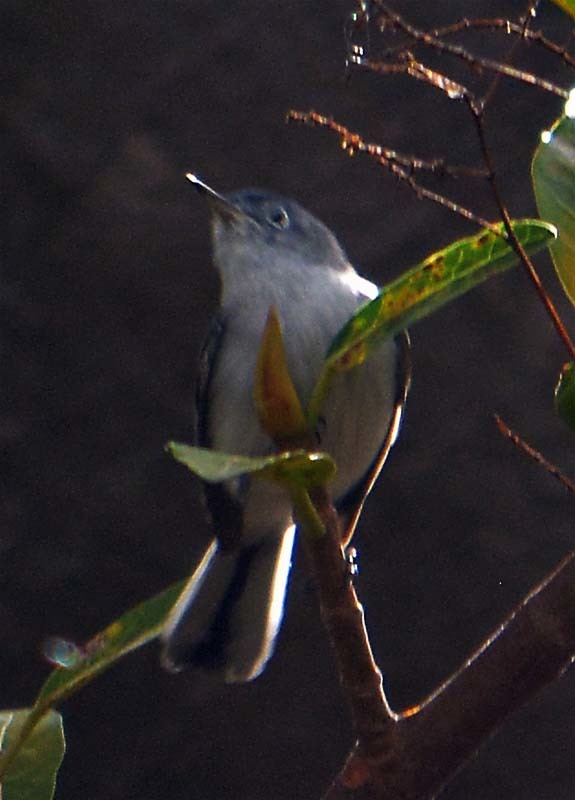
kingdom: Animalia
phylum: Chordata
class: Aves
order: Passeriformes
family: Polioptilidae
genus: Polioptila
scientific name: Polioptila caerulea
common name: Blue-gray gnatcatcher
